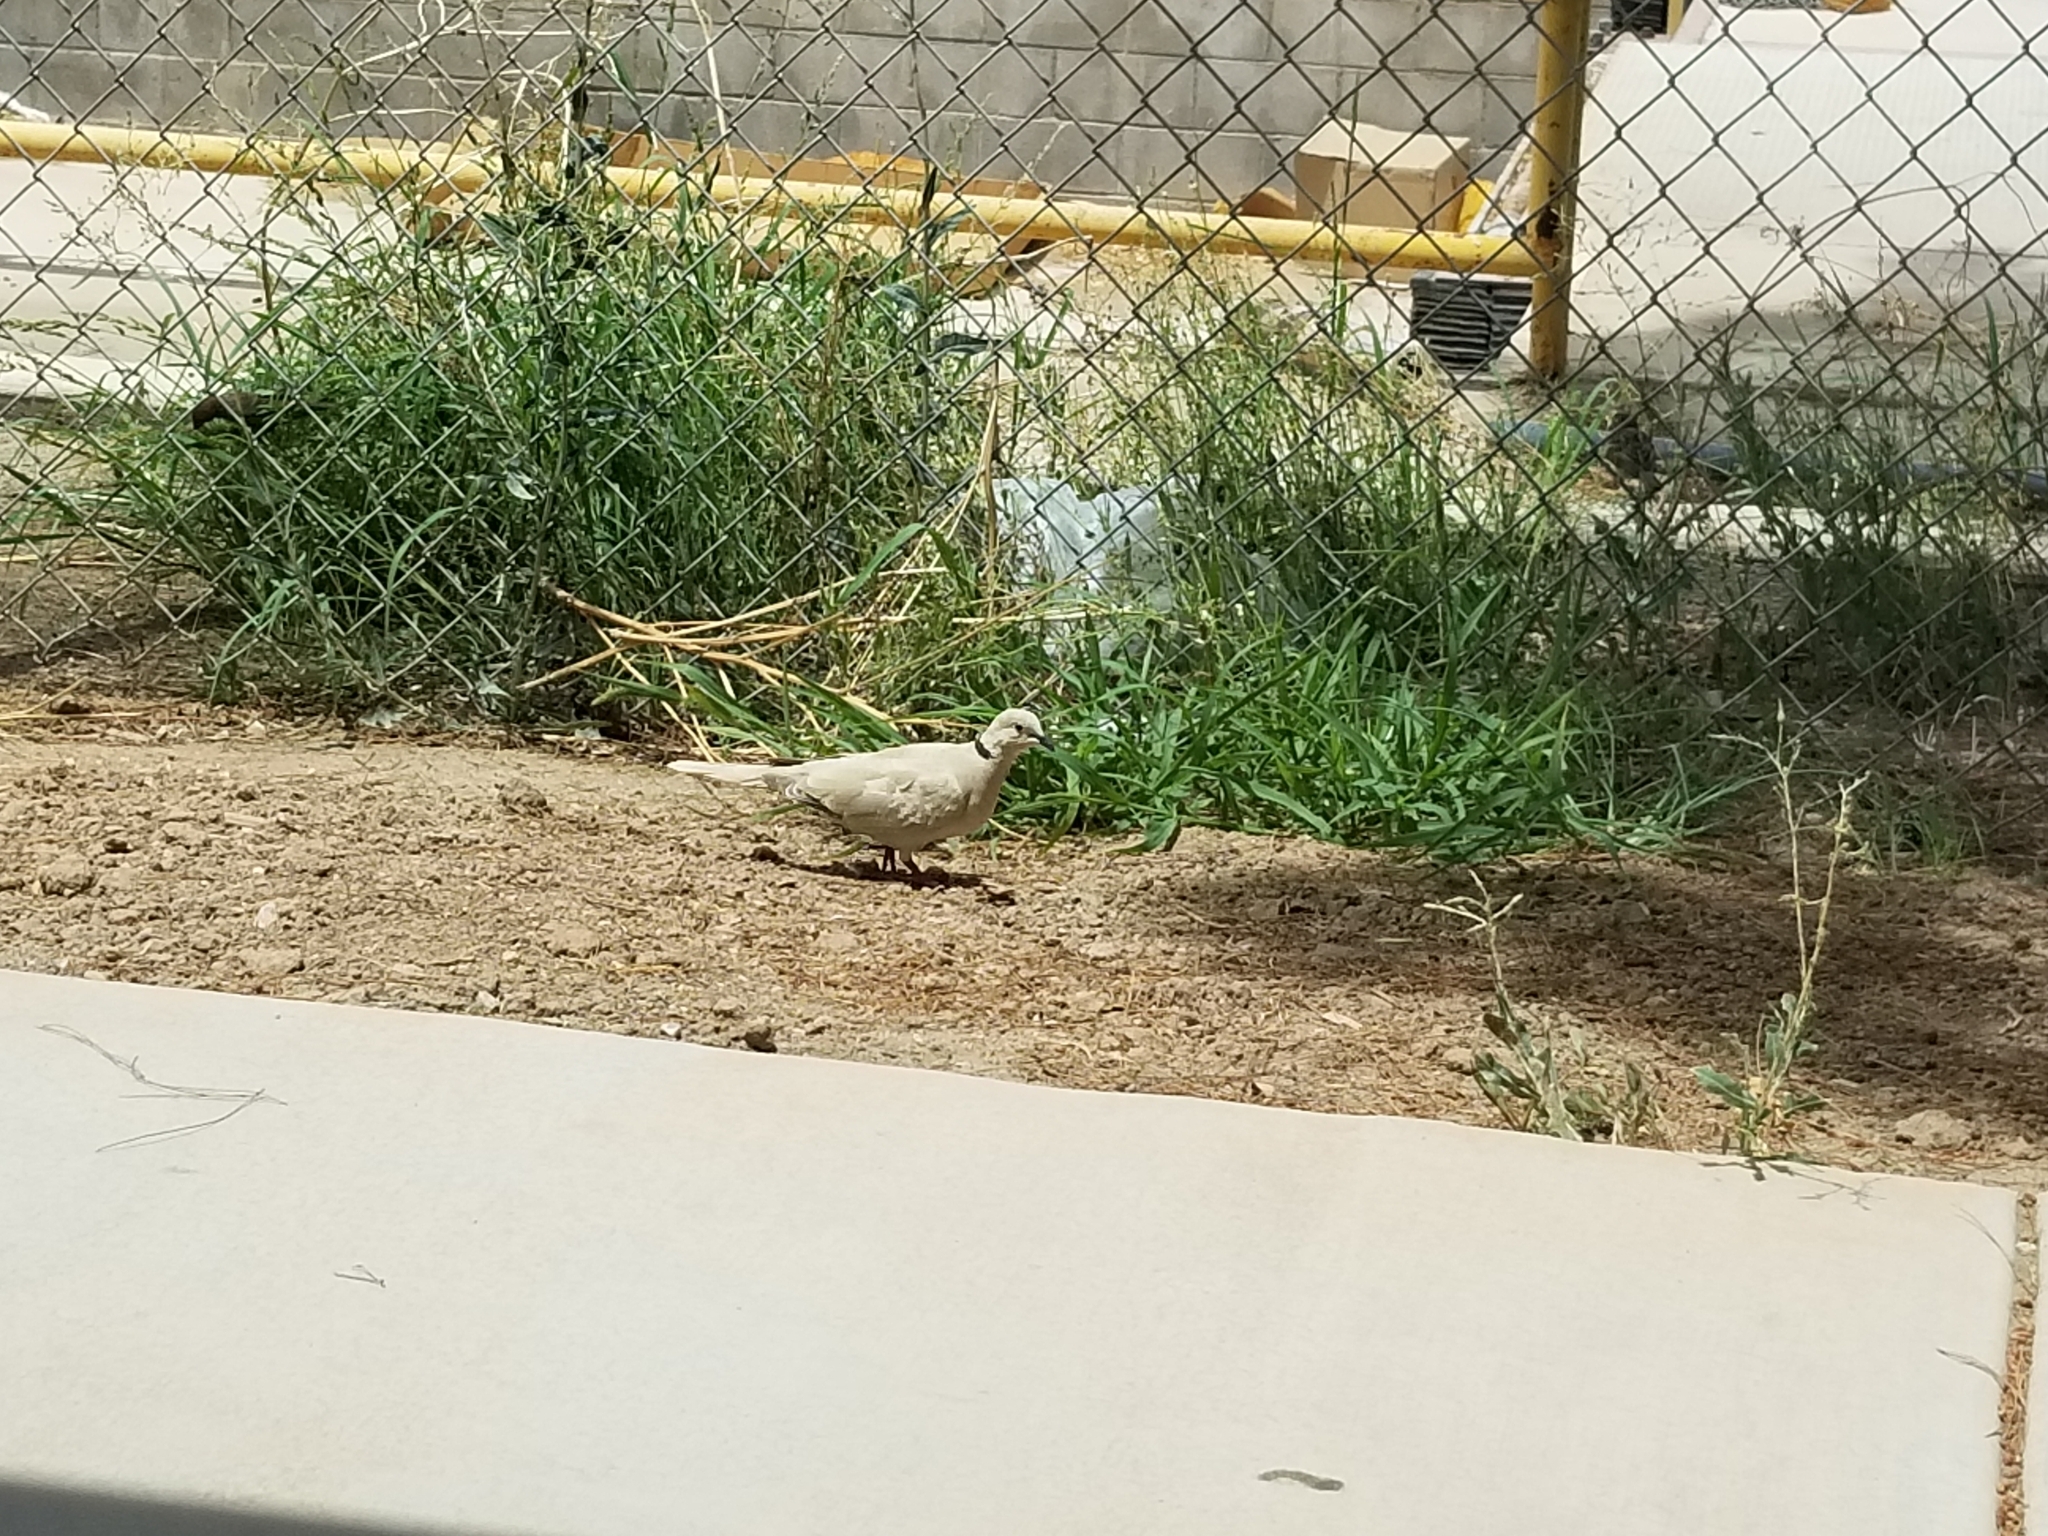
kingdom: Animalia
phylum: Chordata
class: Aves
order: Columbiformes
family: Columbidae
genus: Streptopelia
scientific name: Streptopelia decaocto
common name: Eurasian collared dove
